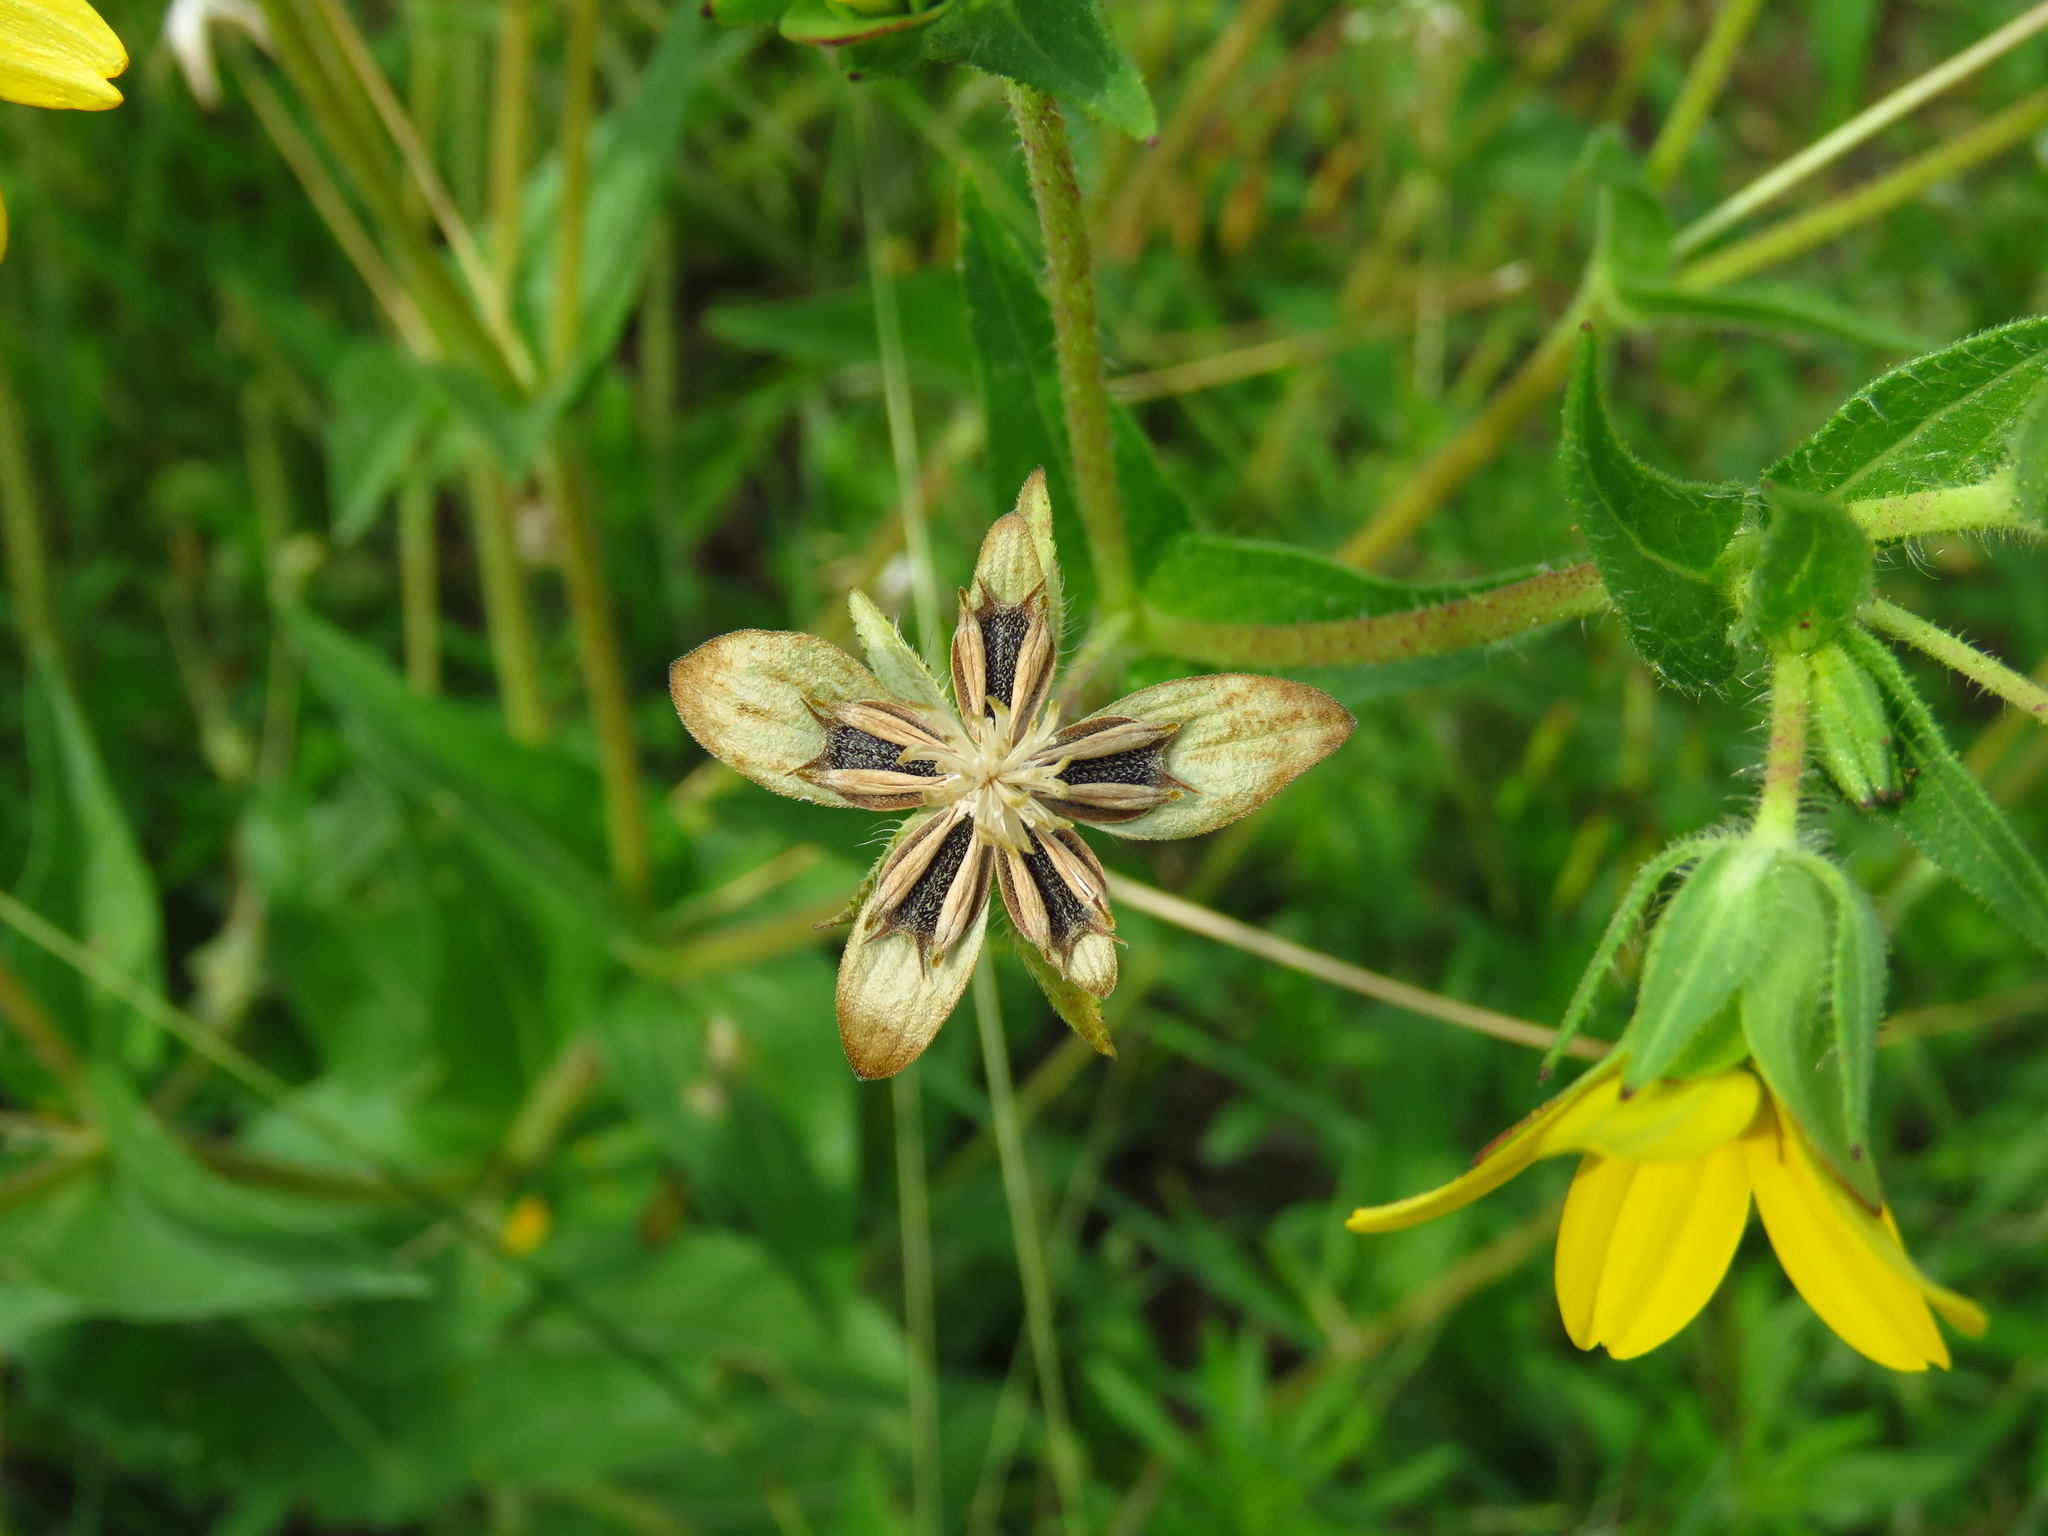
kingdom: Plantae
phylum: Tracheophyta
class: Magnoliopsida
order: Asterales
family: Asteraceae
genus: Lindheimera
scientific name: Lindheimera texana
